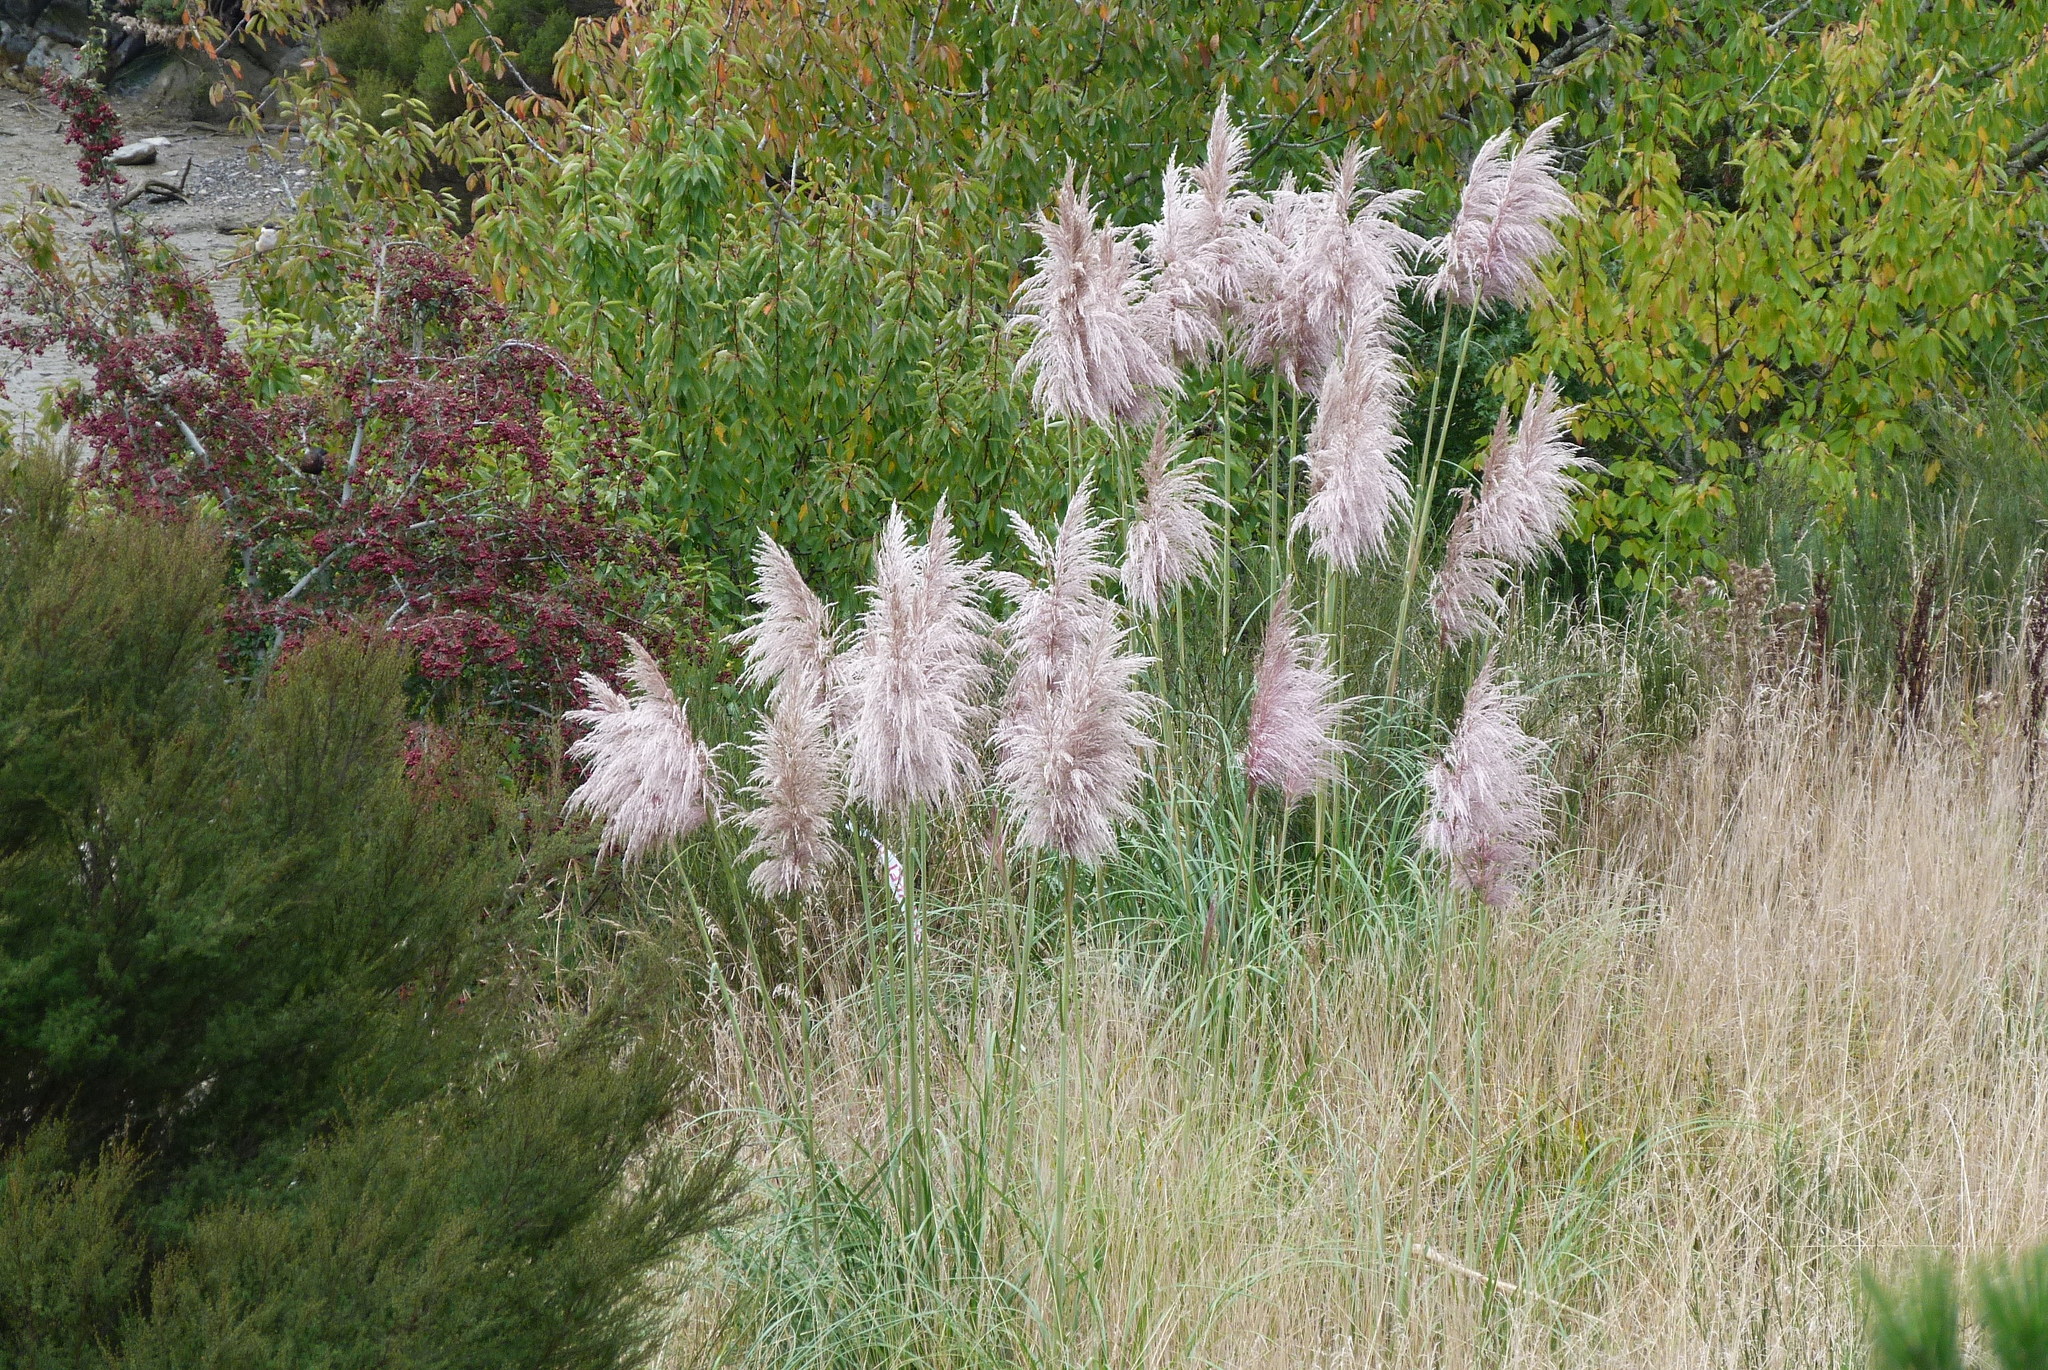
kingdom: Plantae
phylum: Tracheophyta
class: Liliopsida
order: Poales
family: Poaceae
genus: Cortaderia
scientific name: Cortaderia jubata
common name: Purple pampas grass
